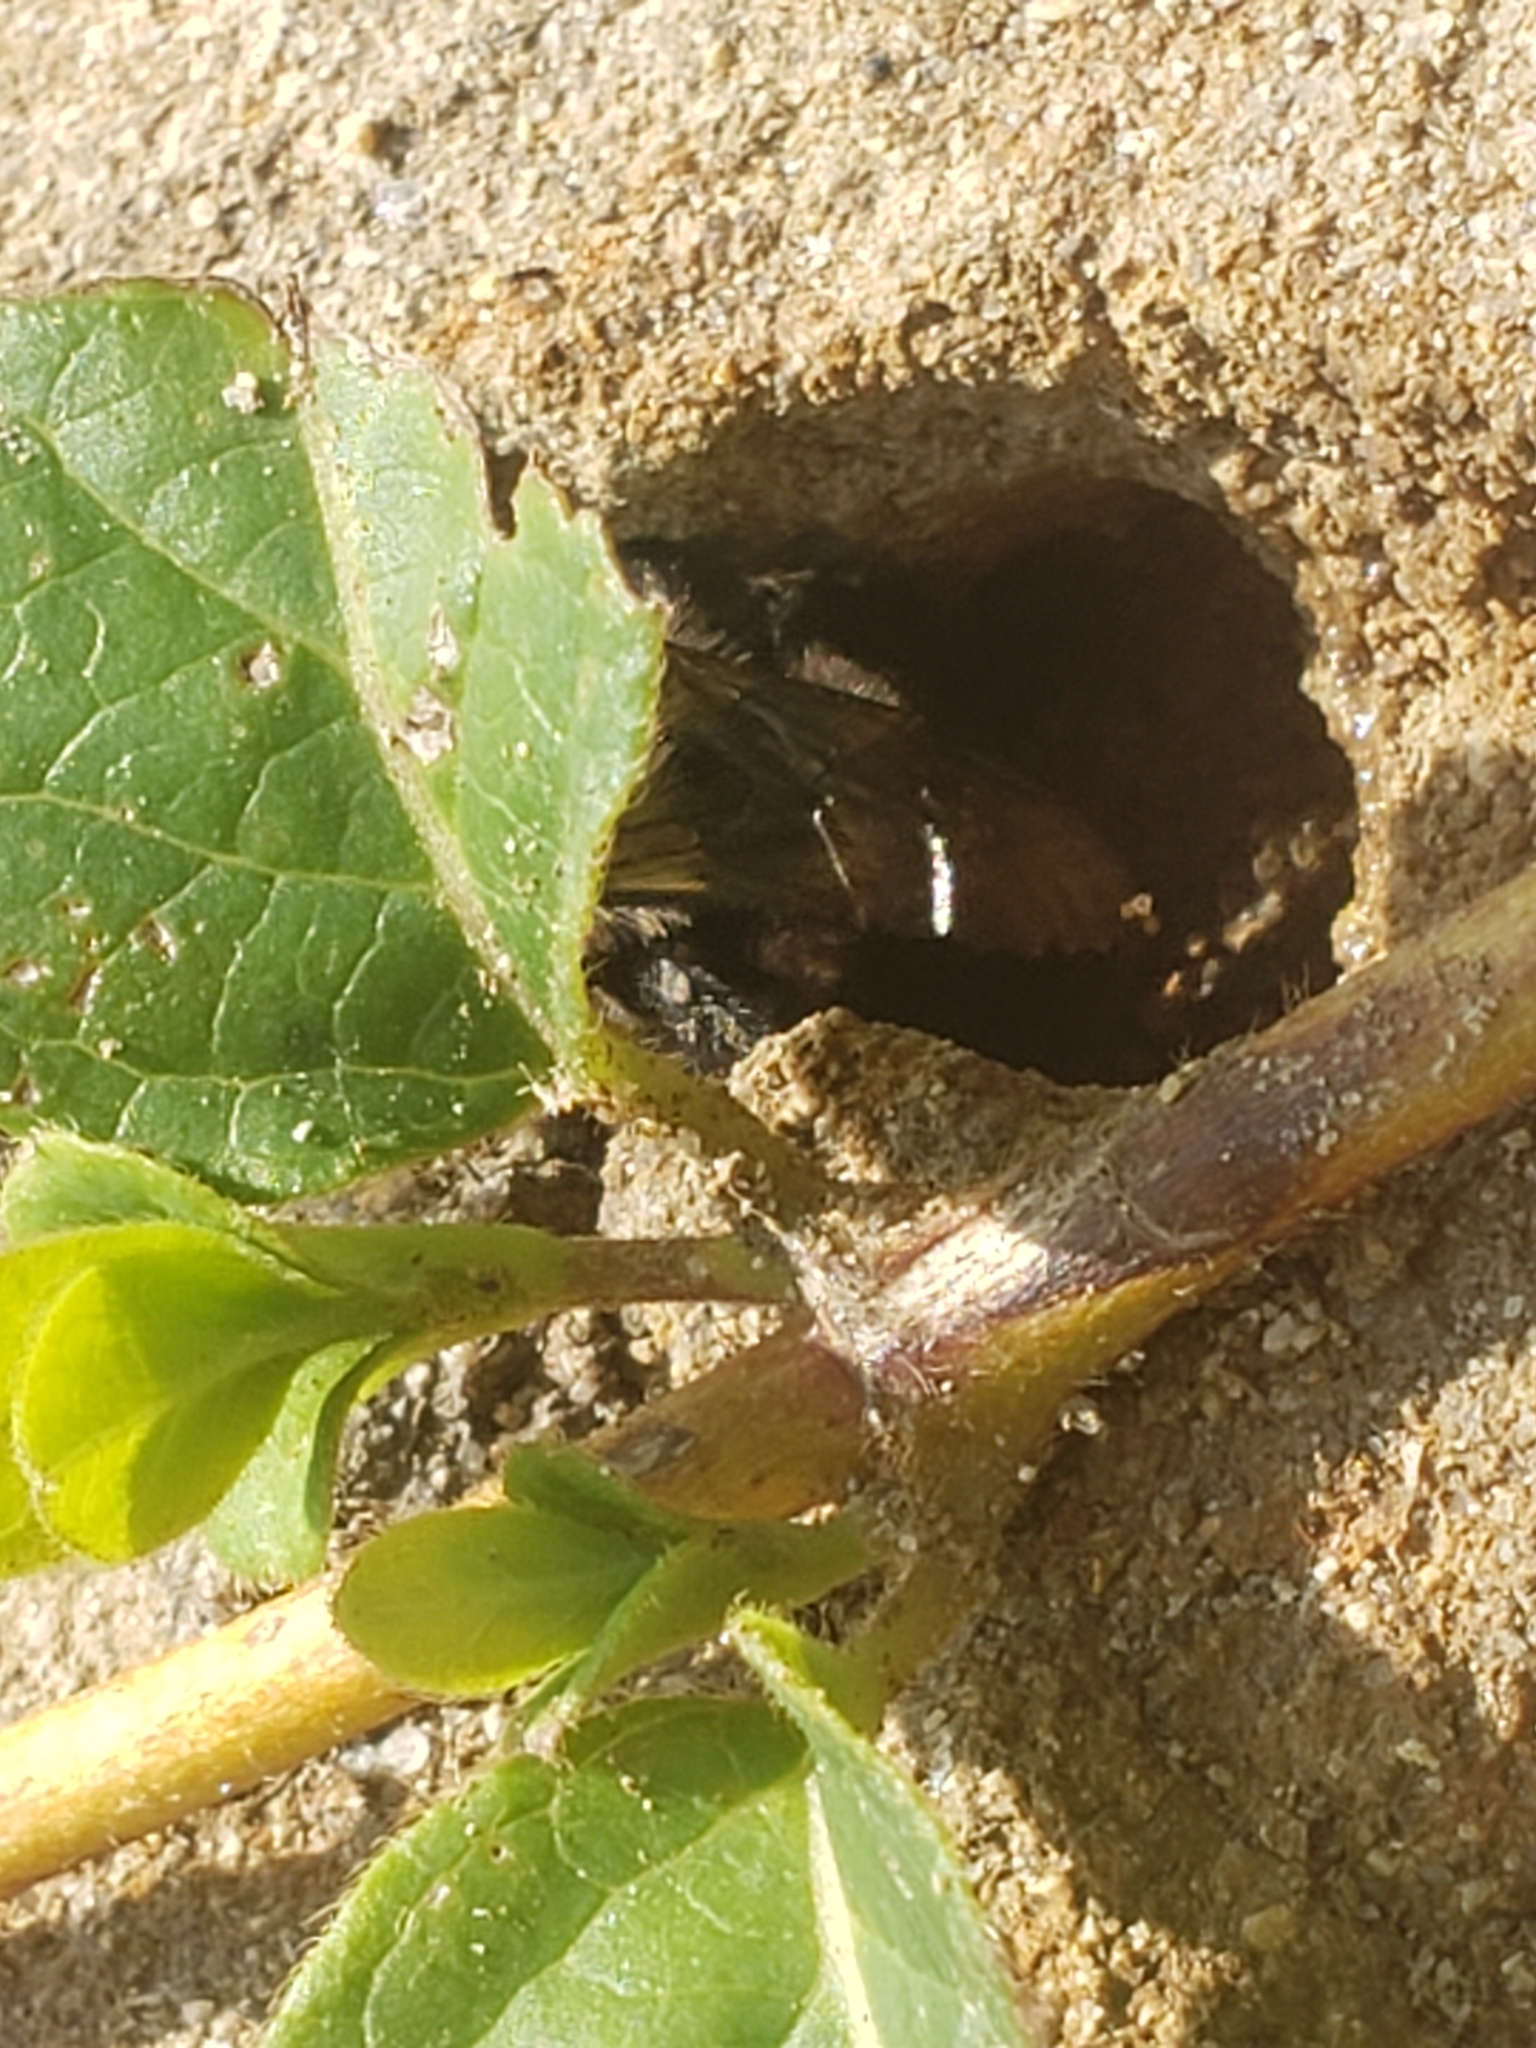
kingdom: Animalia
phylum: Arthropoda
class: Insecta
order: Hymenoptera
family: Apidae
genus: Anthophora
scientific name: Anthophora abrupta
